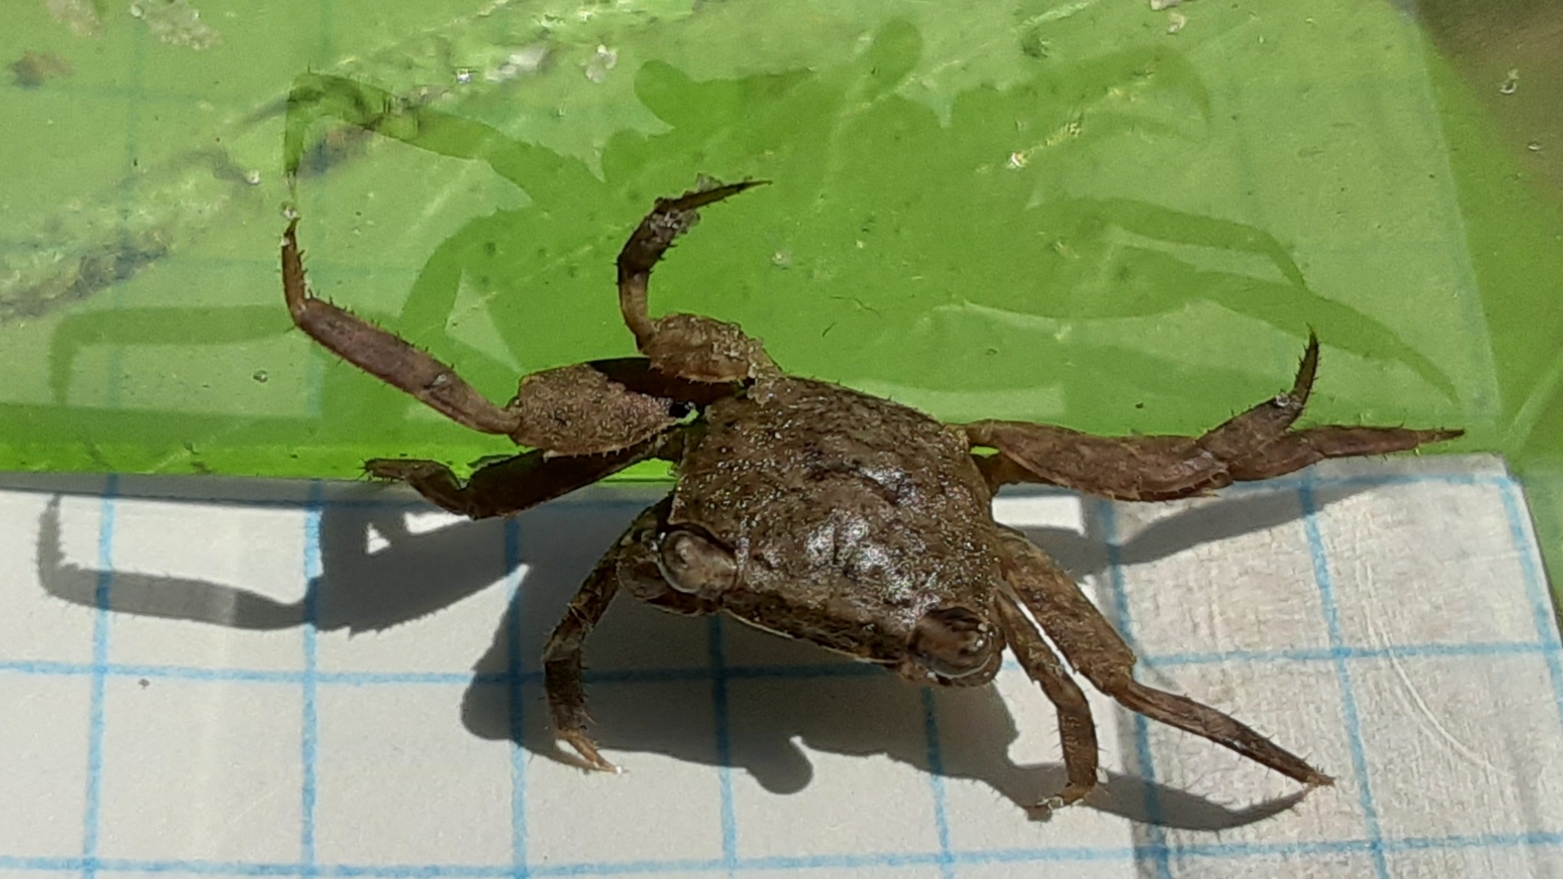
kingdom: Animalia
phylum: Arthropoda
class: Malacostraca
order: Decapoda
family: Sesarmidae
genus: Armases
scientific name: Armases cinereum
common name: Squareback marsh crab
